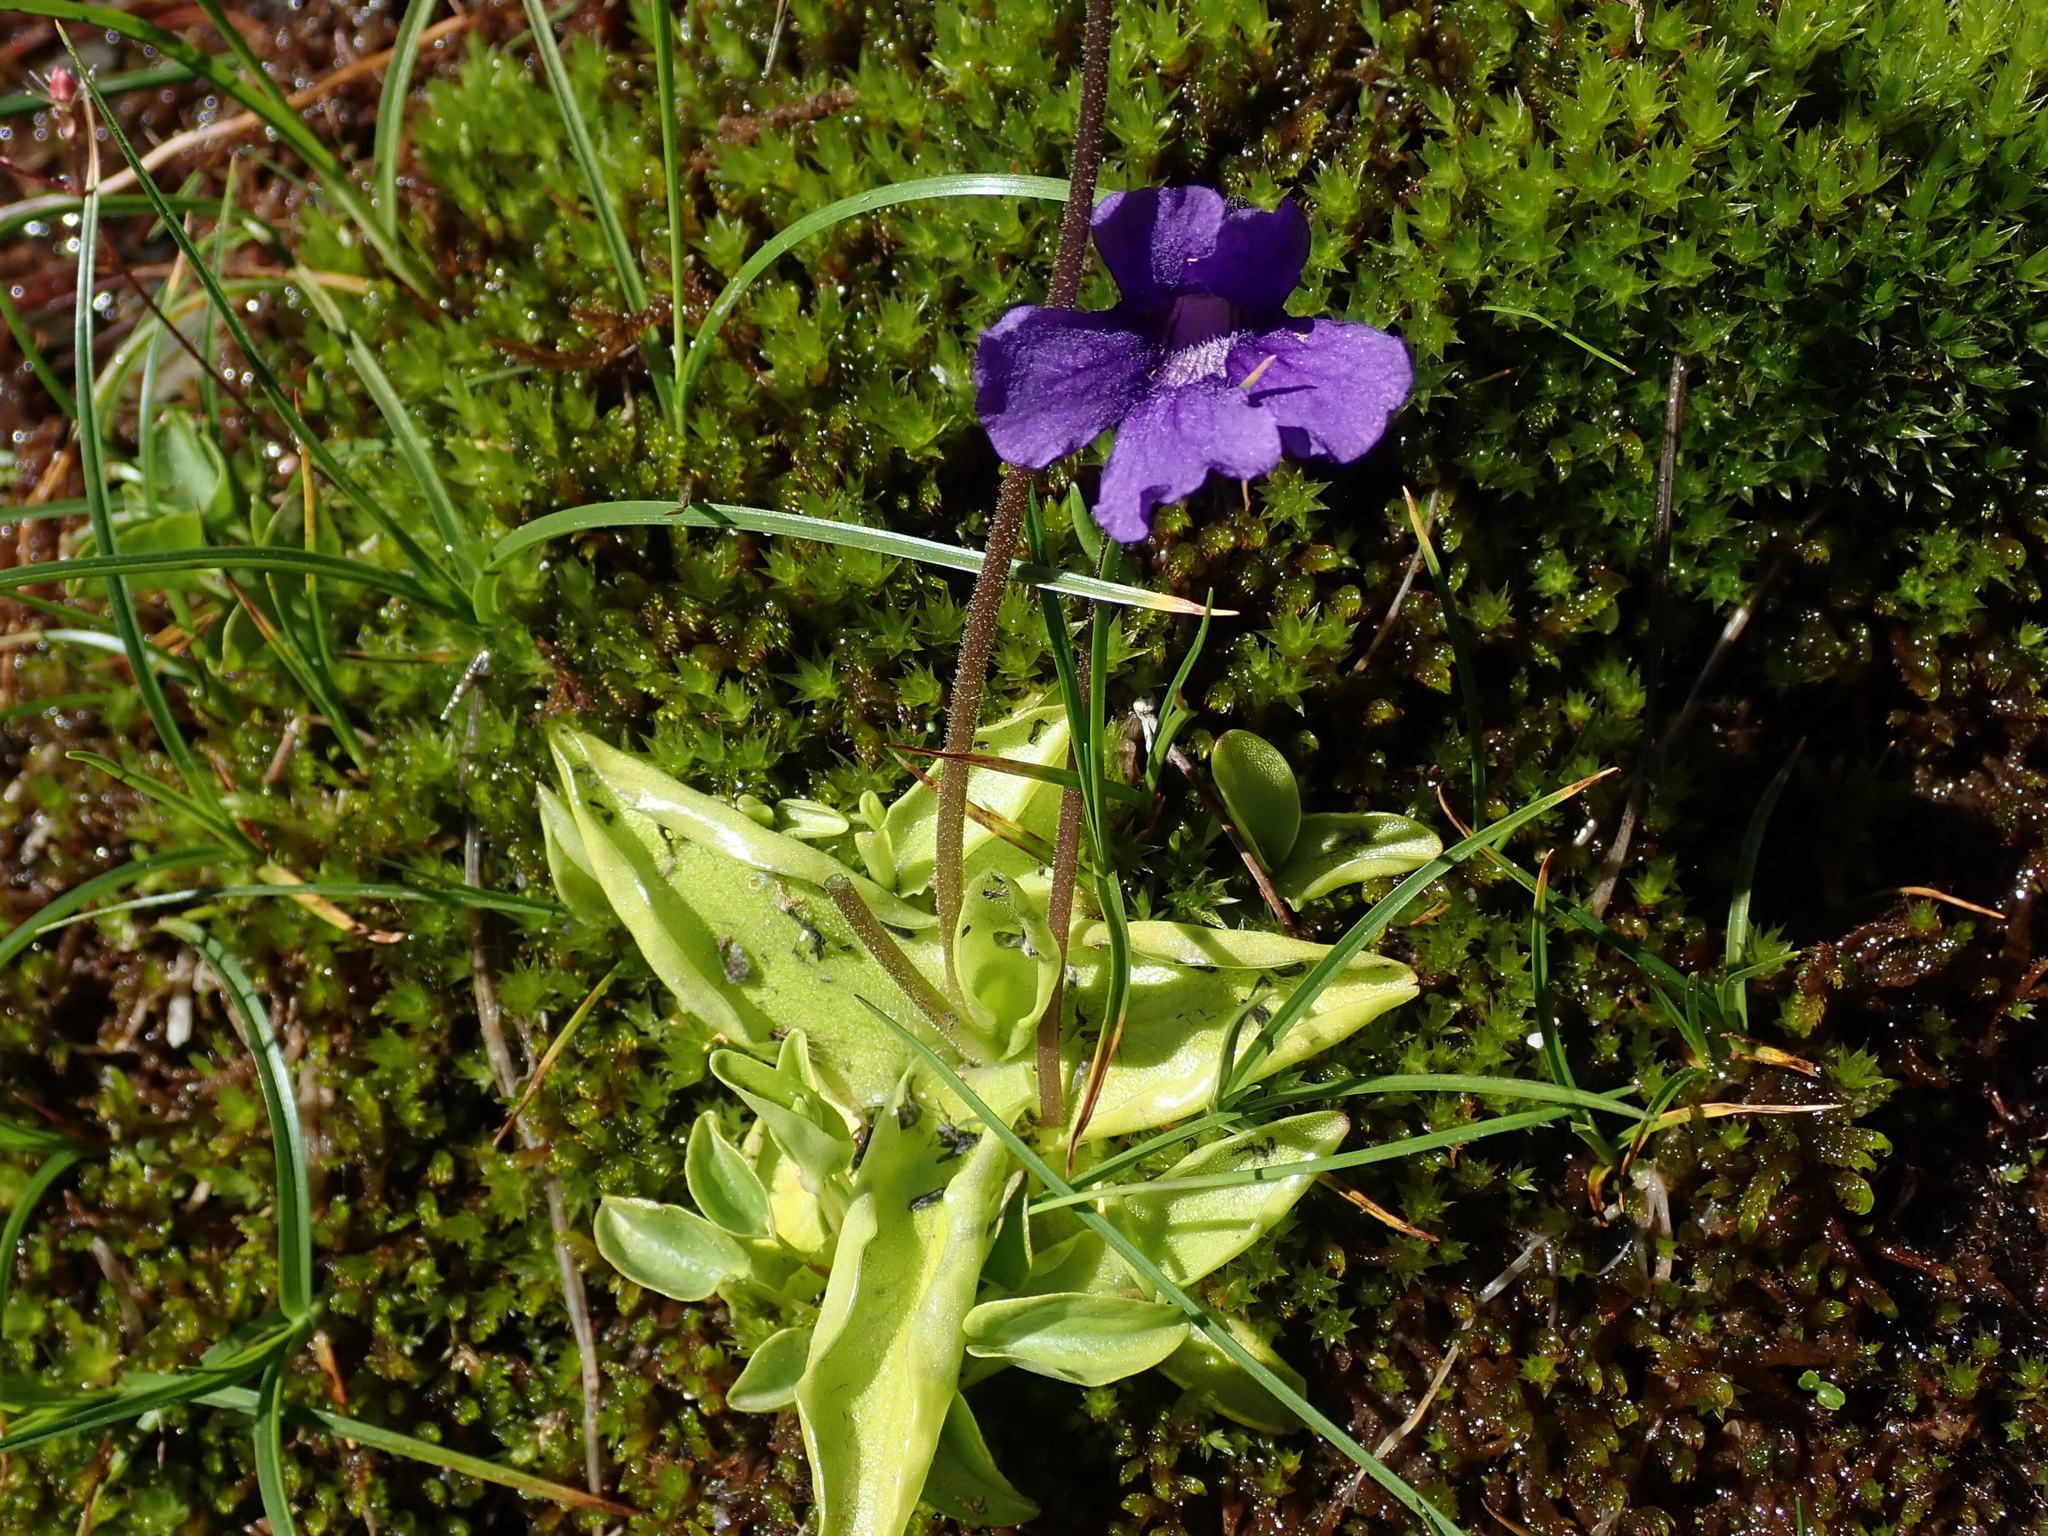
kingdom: Plantae
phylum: Tracheophyta
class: Magnoliopsida
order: Lamiales
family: Lentibulariaceae
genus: Pinguicula
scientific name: Pinguicula grandiflora
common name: Large-flowered butterwort
